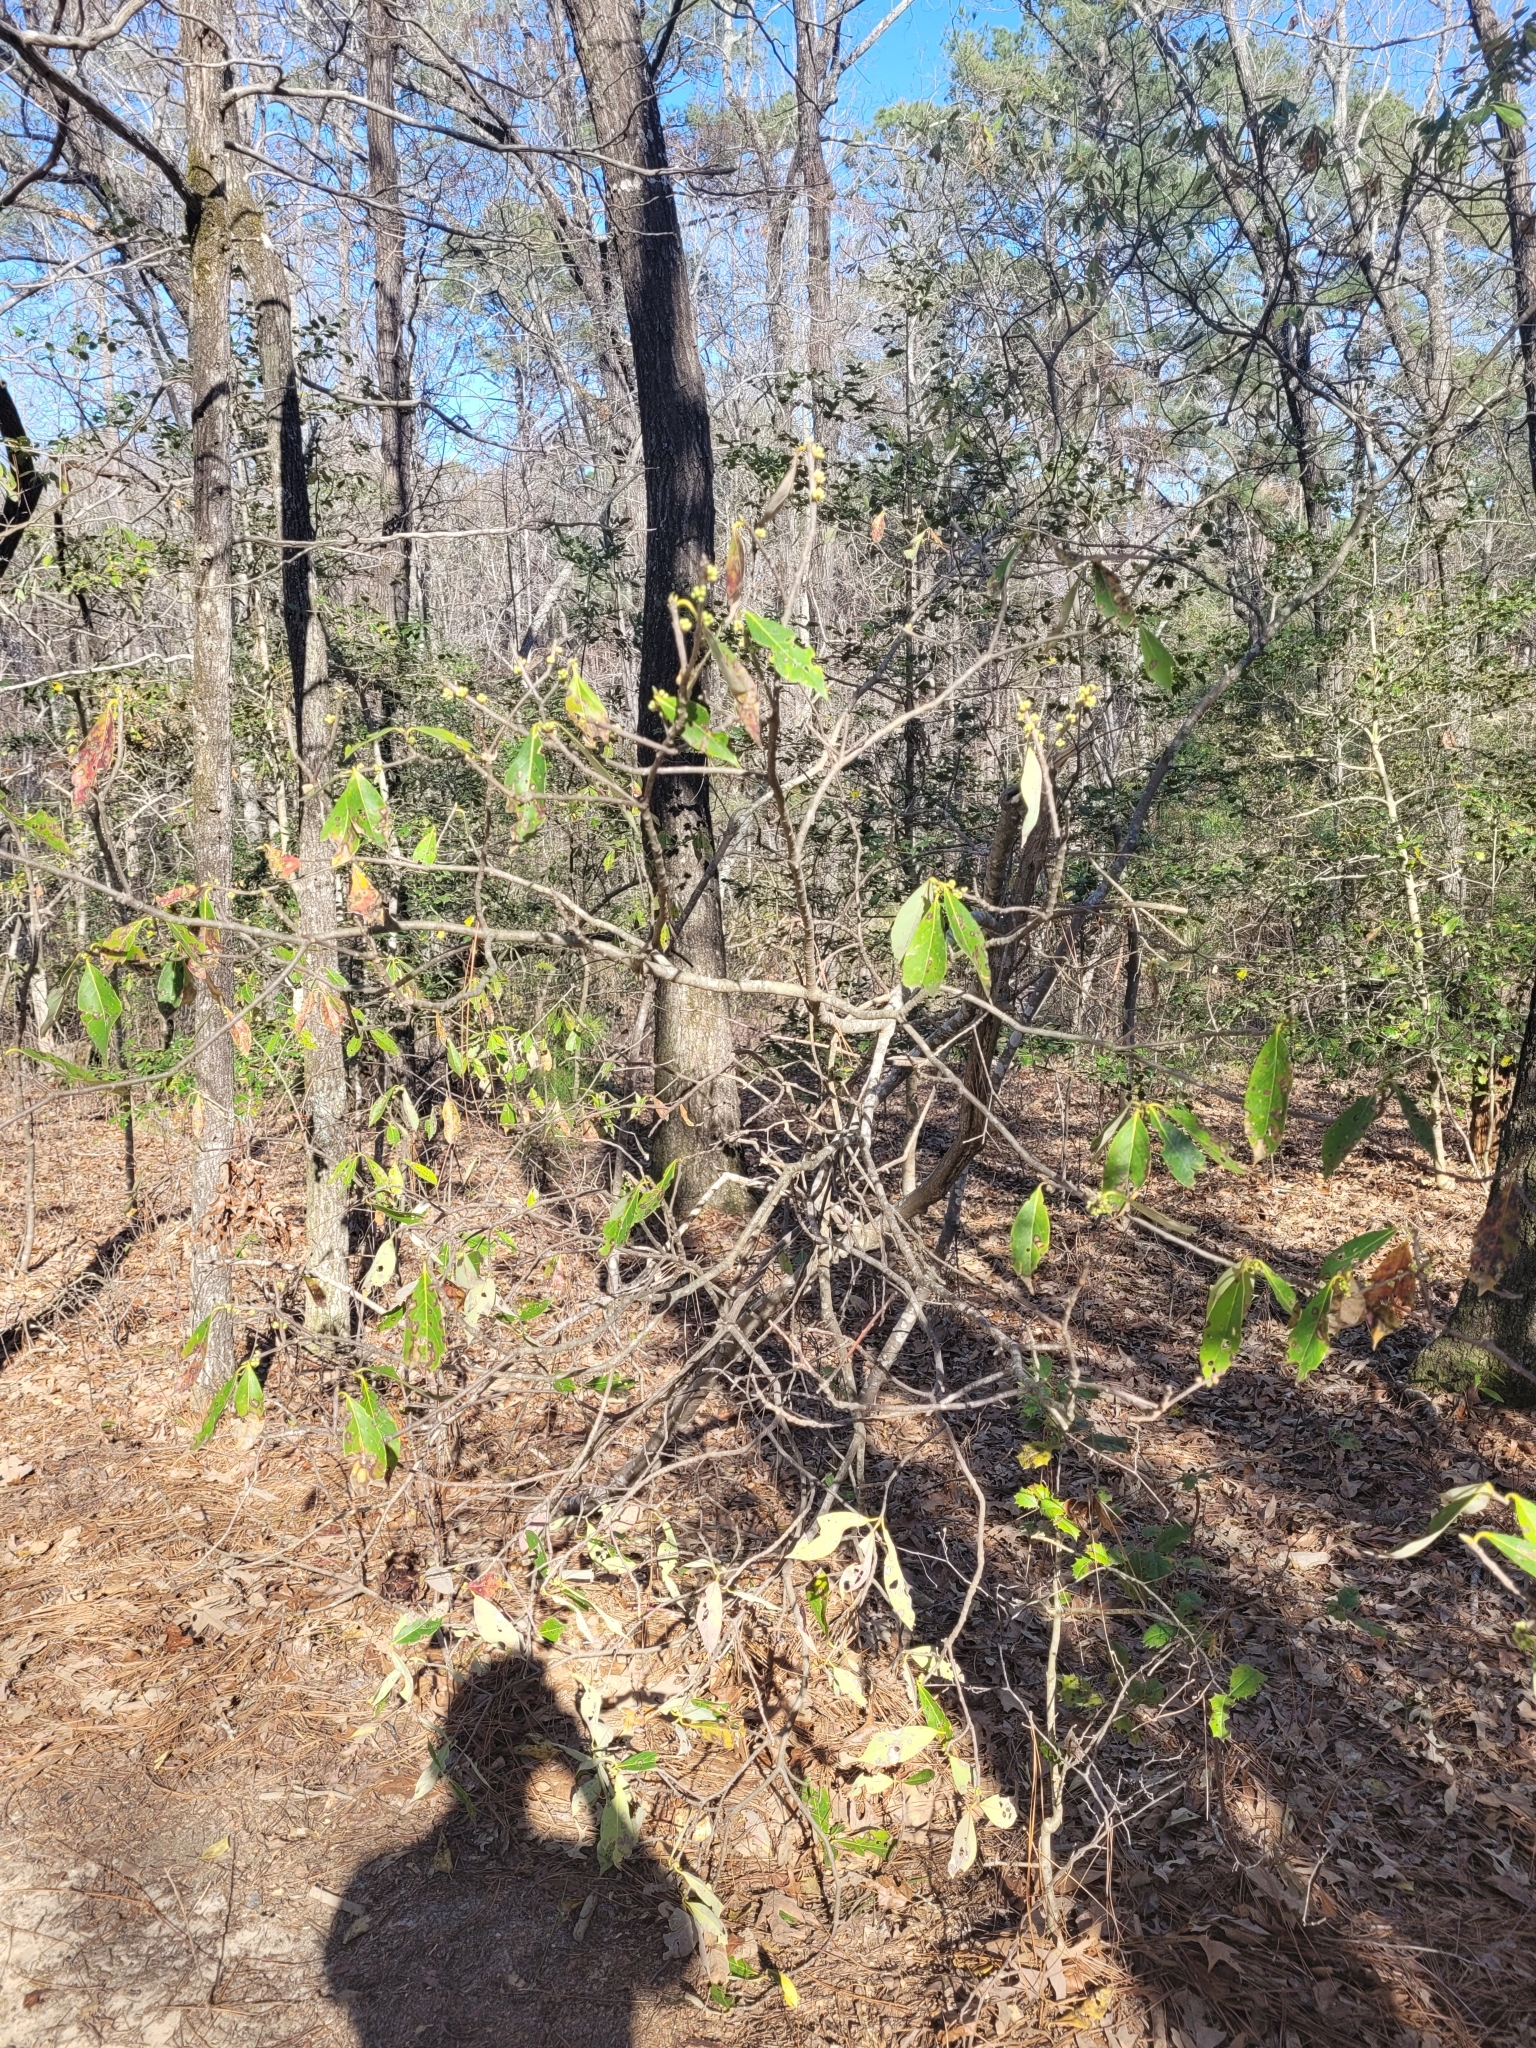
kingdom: Plantae
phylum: Tracheophyta
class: Magnoliopsida
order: Ericales
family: Symplocaceae
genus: Symplocos
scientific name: Symplocos tinctoria
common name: Horse-sugar
